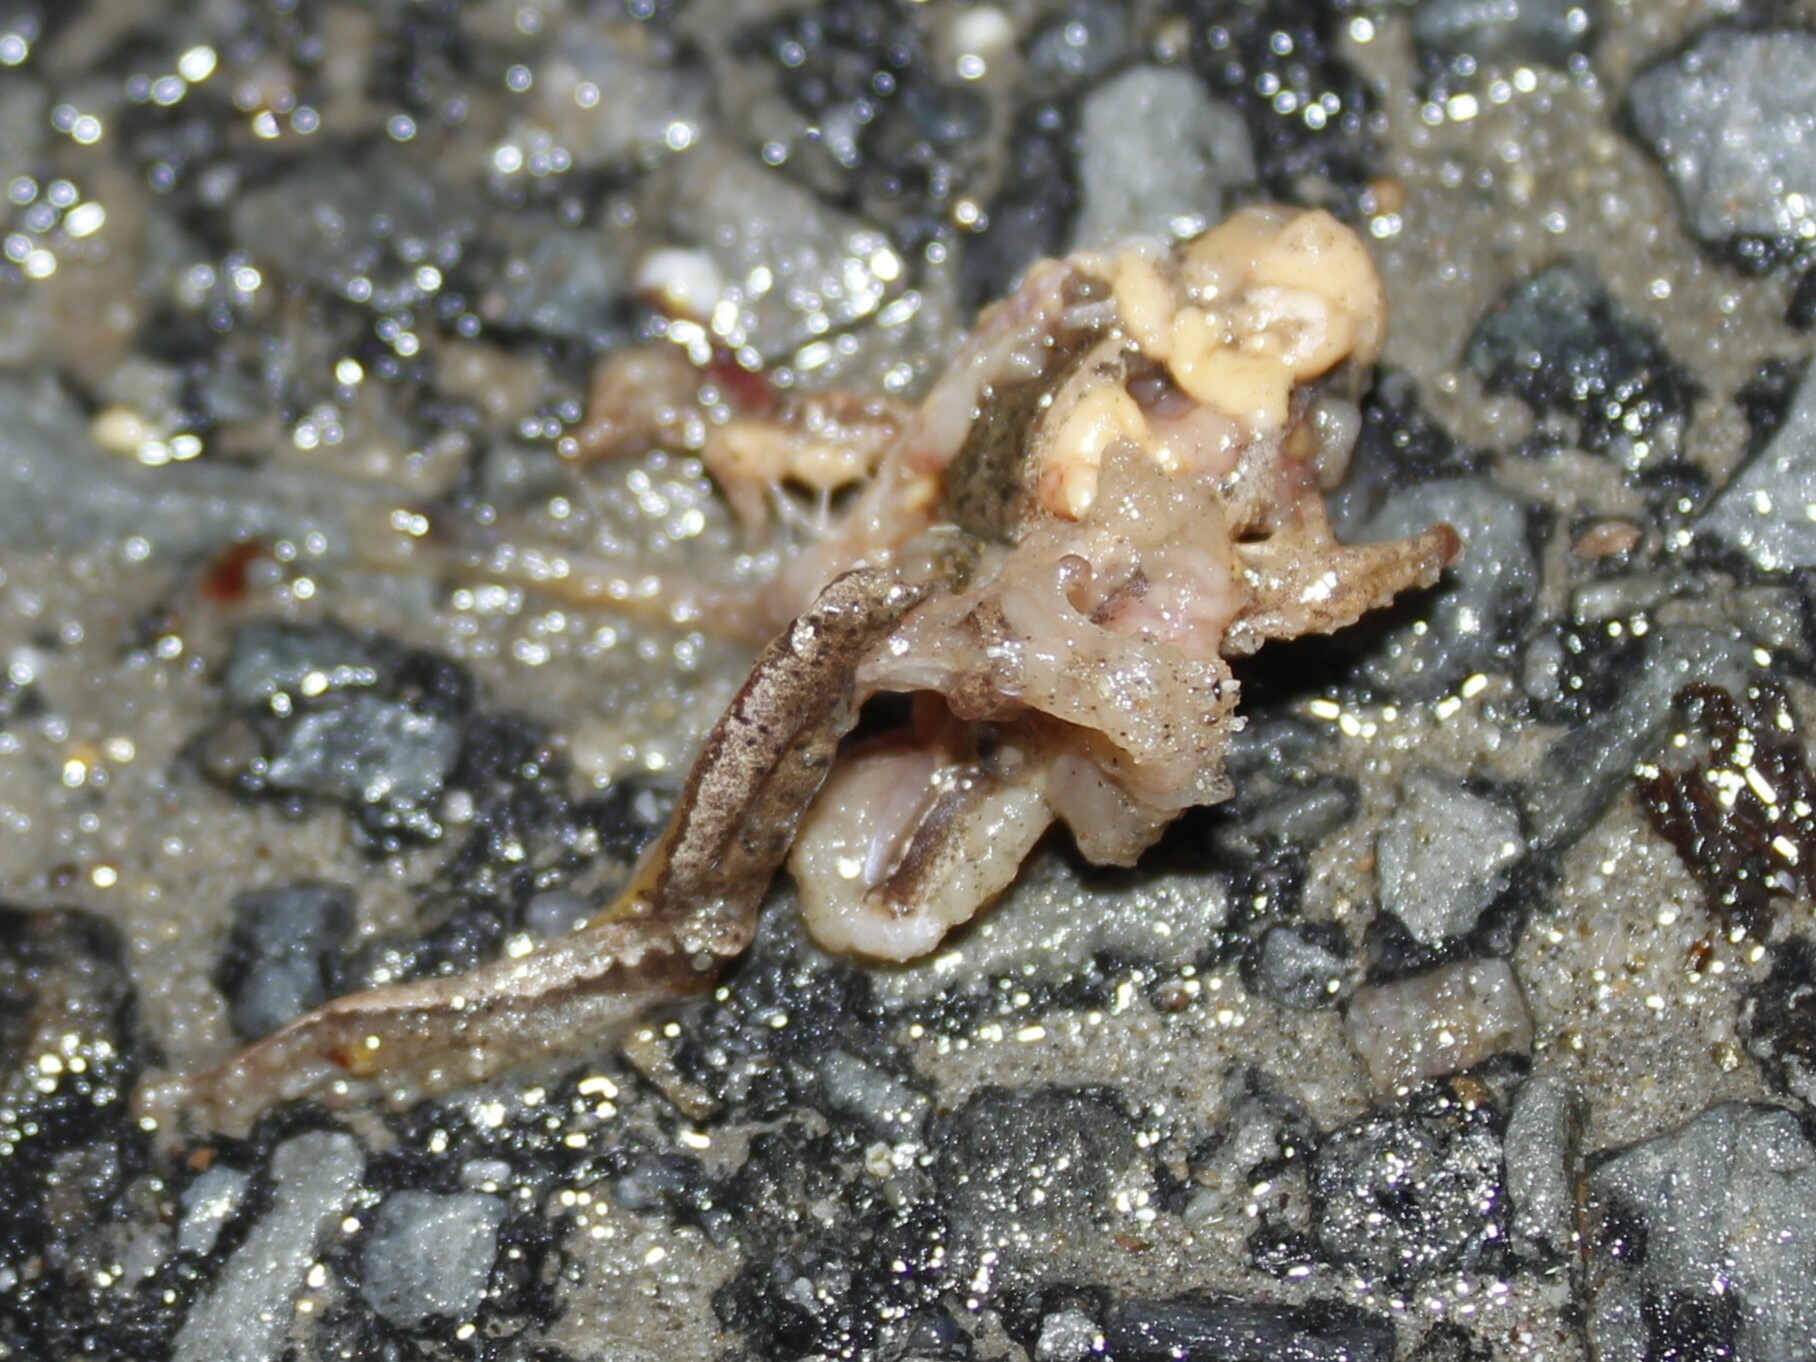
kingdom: Animalia
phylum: Chordata
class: Amphibia
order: Anura
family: Hylidae
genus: Pseudacris
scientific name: Pseudacris crucifer
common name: Spring peeper
